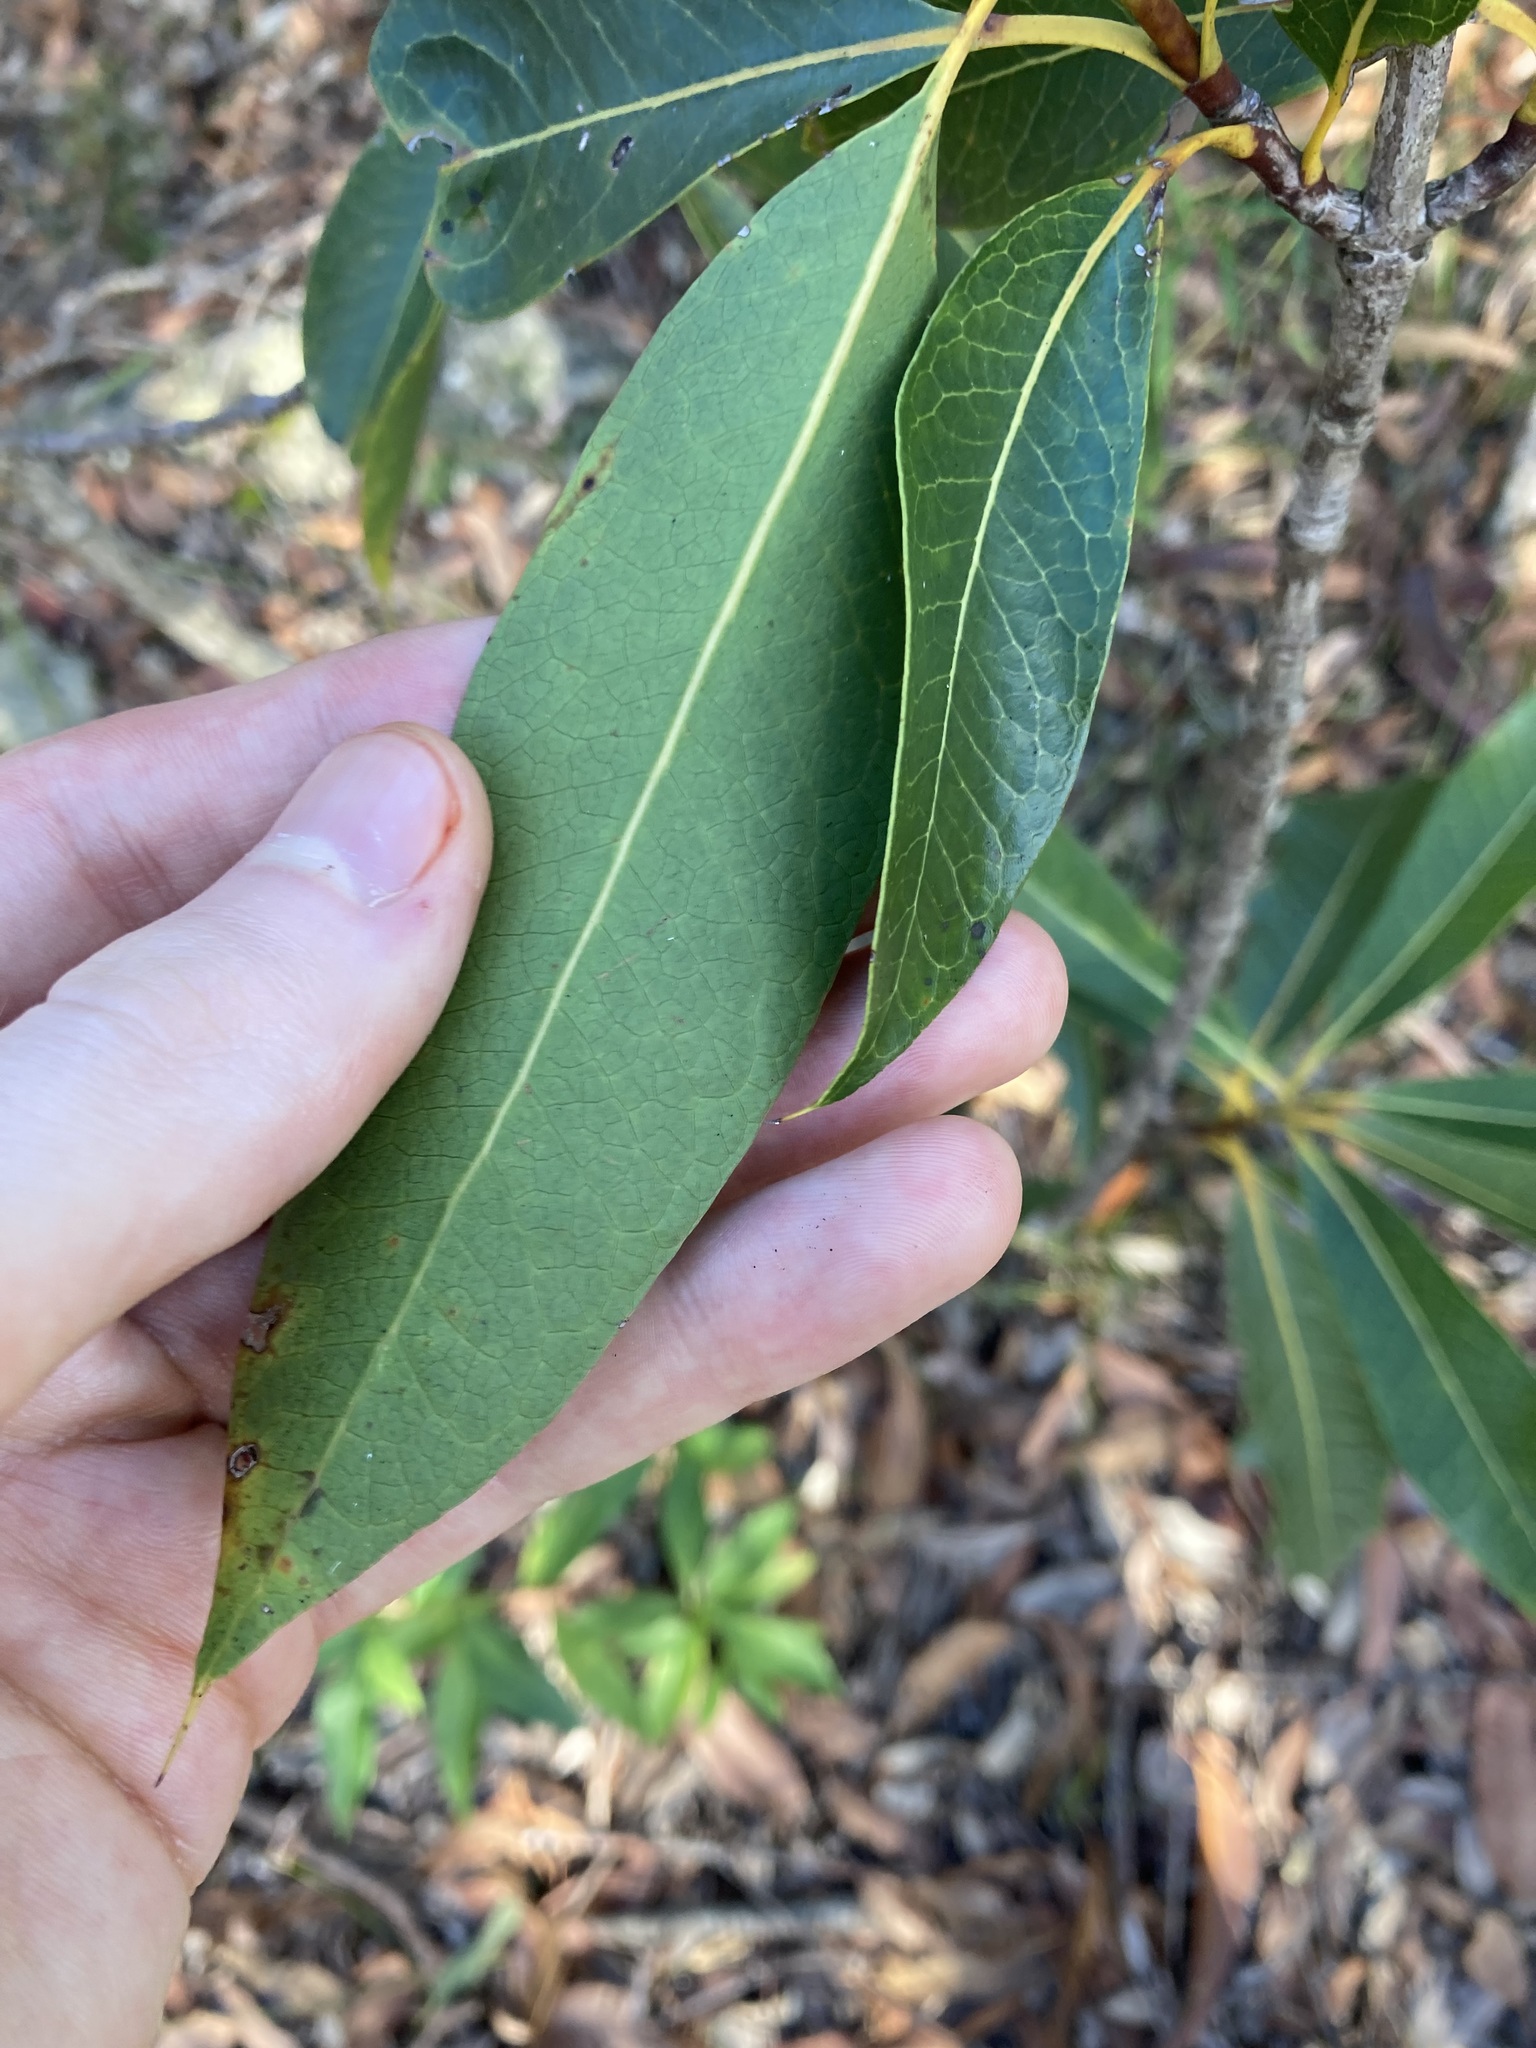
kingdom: Plantae
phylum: Tracheophyta
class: Magnoliopsida
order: Proteales
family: Proteaceae
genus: Xylomelum
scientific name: Xylomelum pyriforme
